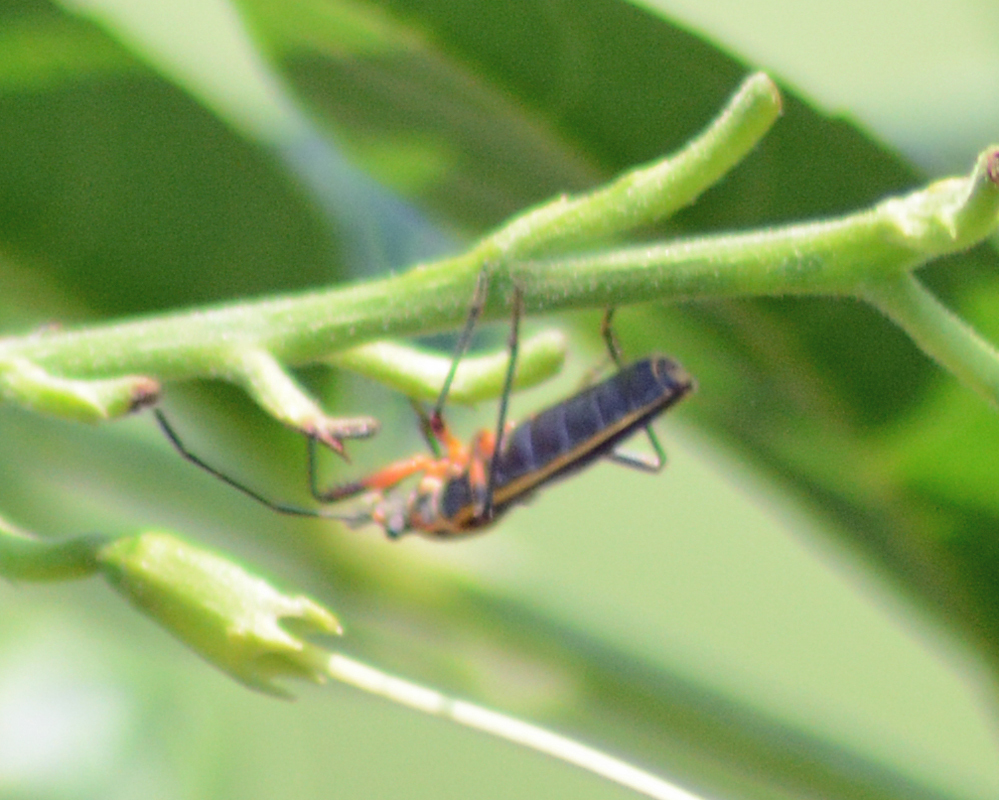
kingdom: Animalia
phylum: Arthropoda
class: Insecta
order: Hemiptera
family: Largidae
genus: Stenomacra
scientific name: Stenomacra marginella
